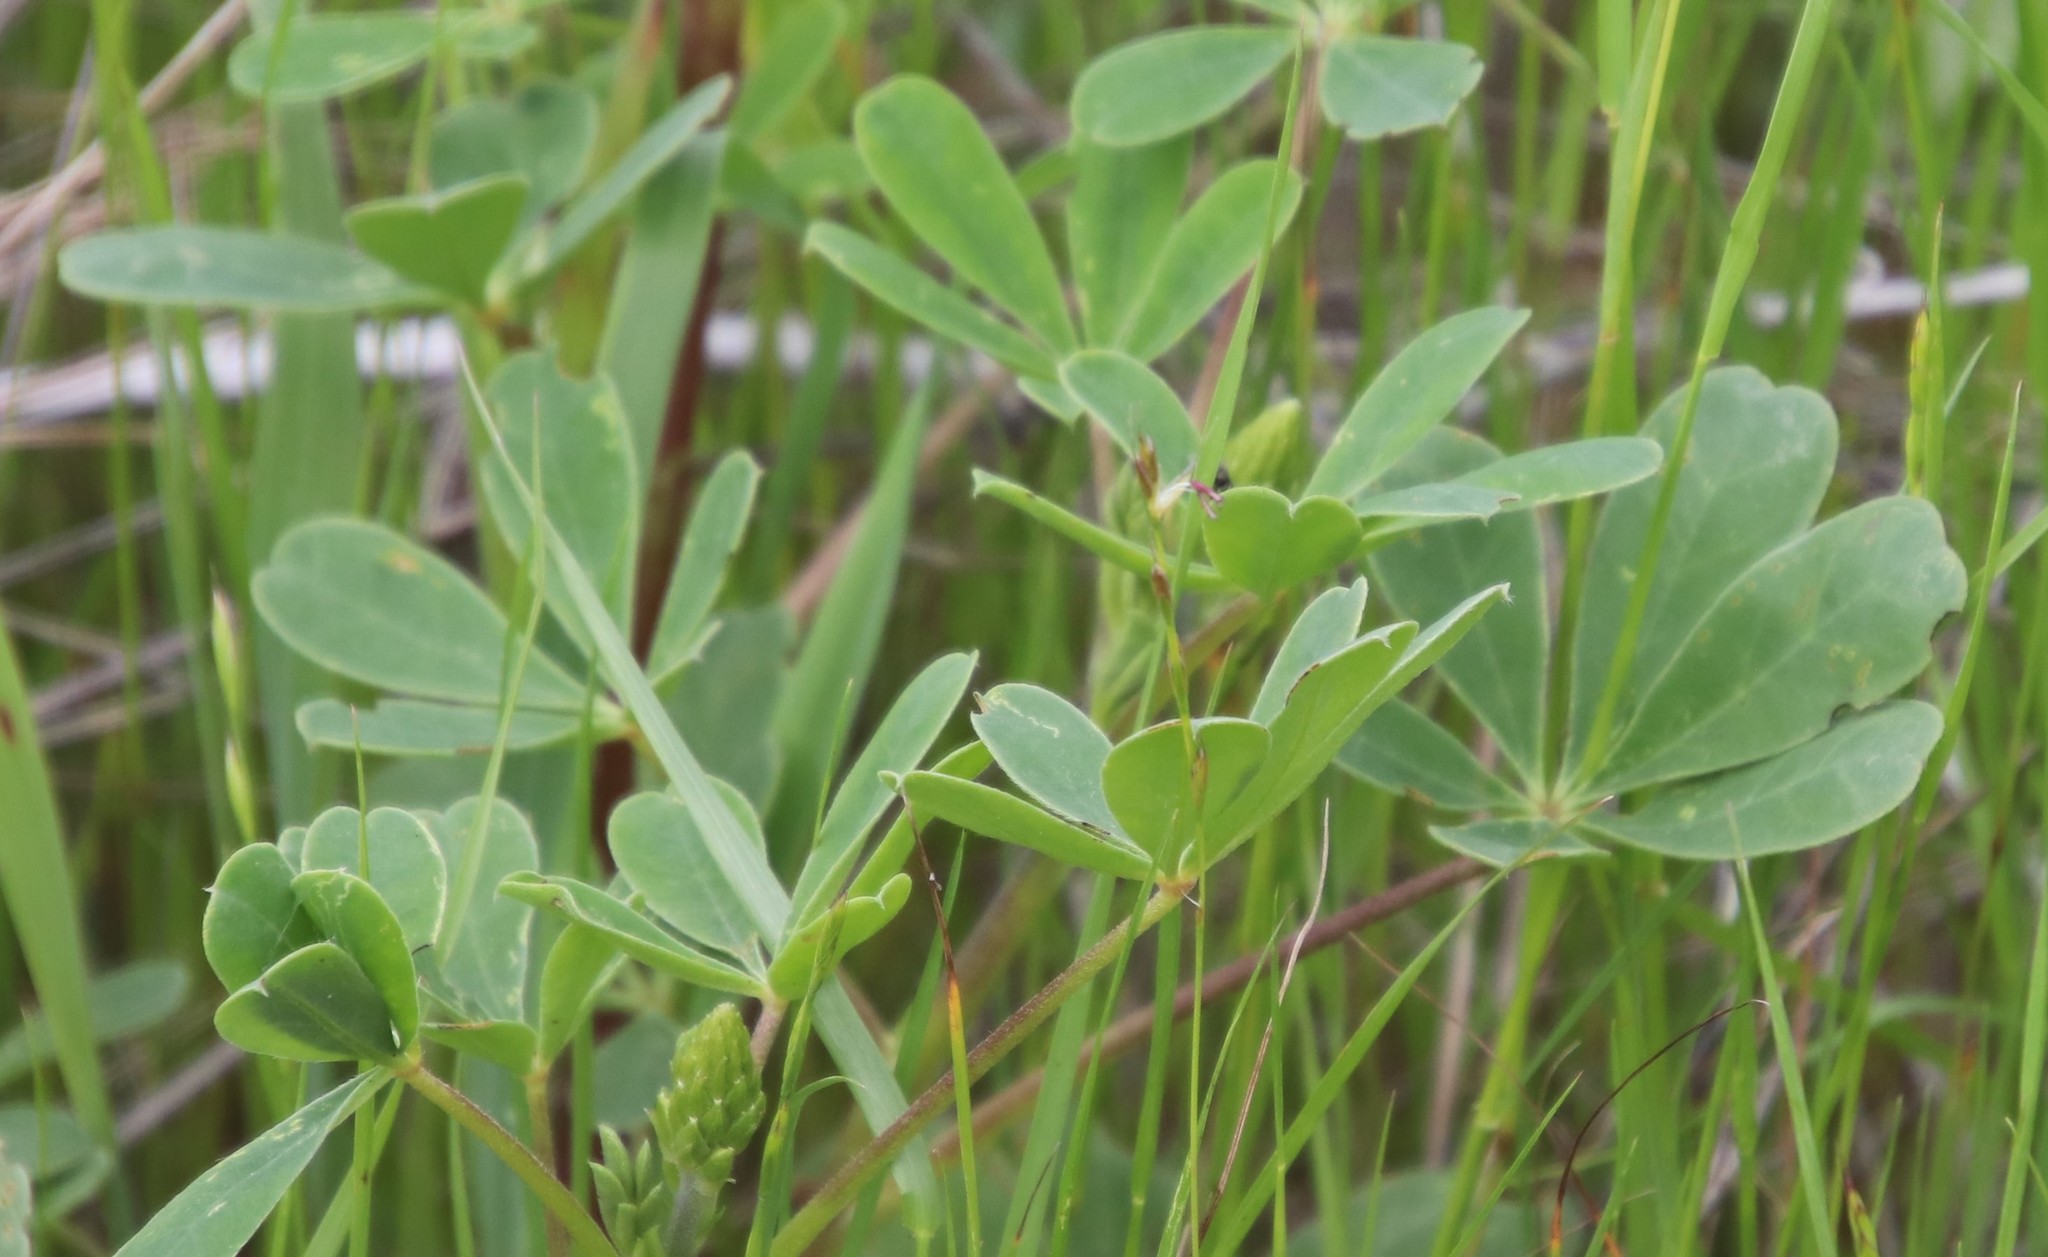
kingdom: Plantae
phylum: Tracheophyta
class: Magnoliopsida
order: Fabales
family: Fabaceae
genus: Lupinus
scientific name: Lupinus succulentus
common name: Arroyo lupine
